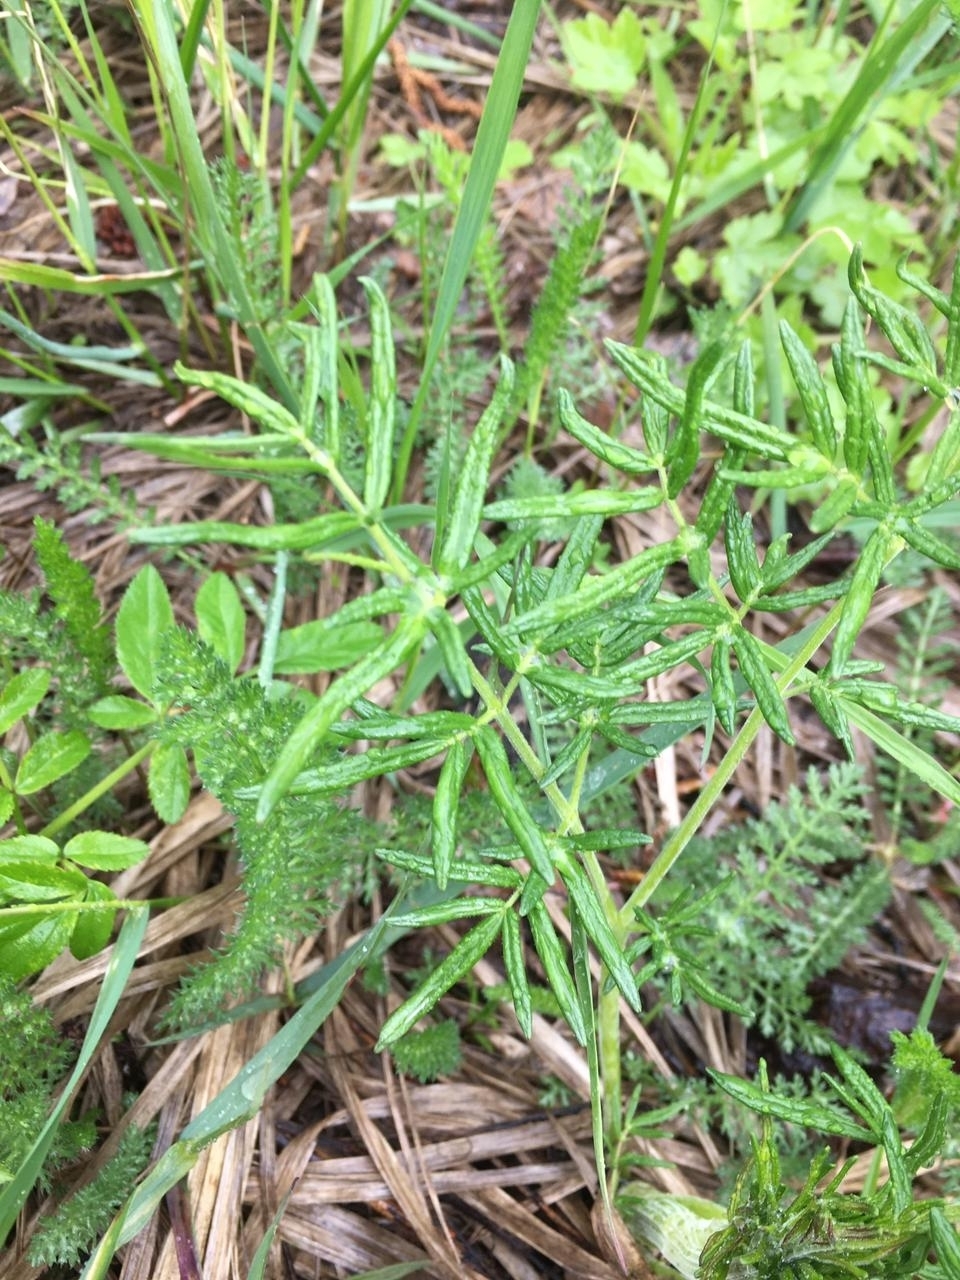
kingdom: Plantae
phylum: Tracheophyta
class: Magnoliopsida
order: Ranunculales
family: Ranunculaceae
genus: Thalictrum
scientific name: Thalictrum lucidum
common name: Shining meadow-rue
